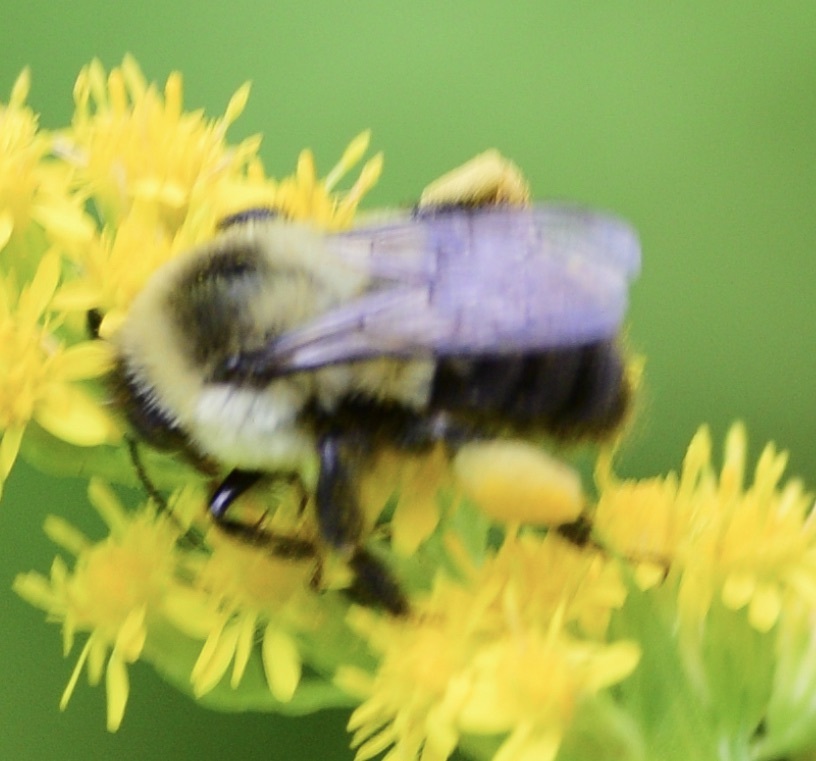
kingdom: Animalia
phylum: Arthropoda
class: Insecta
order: Hymenoptera
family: Apidae
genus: Bombus
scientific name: Bombus impatiens
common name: Common eastern bumble bee
